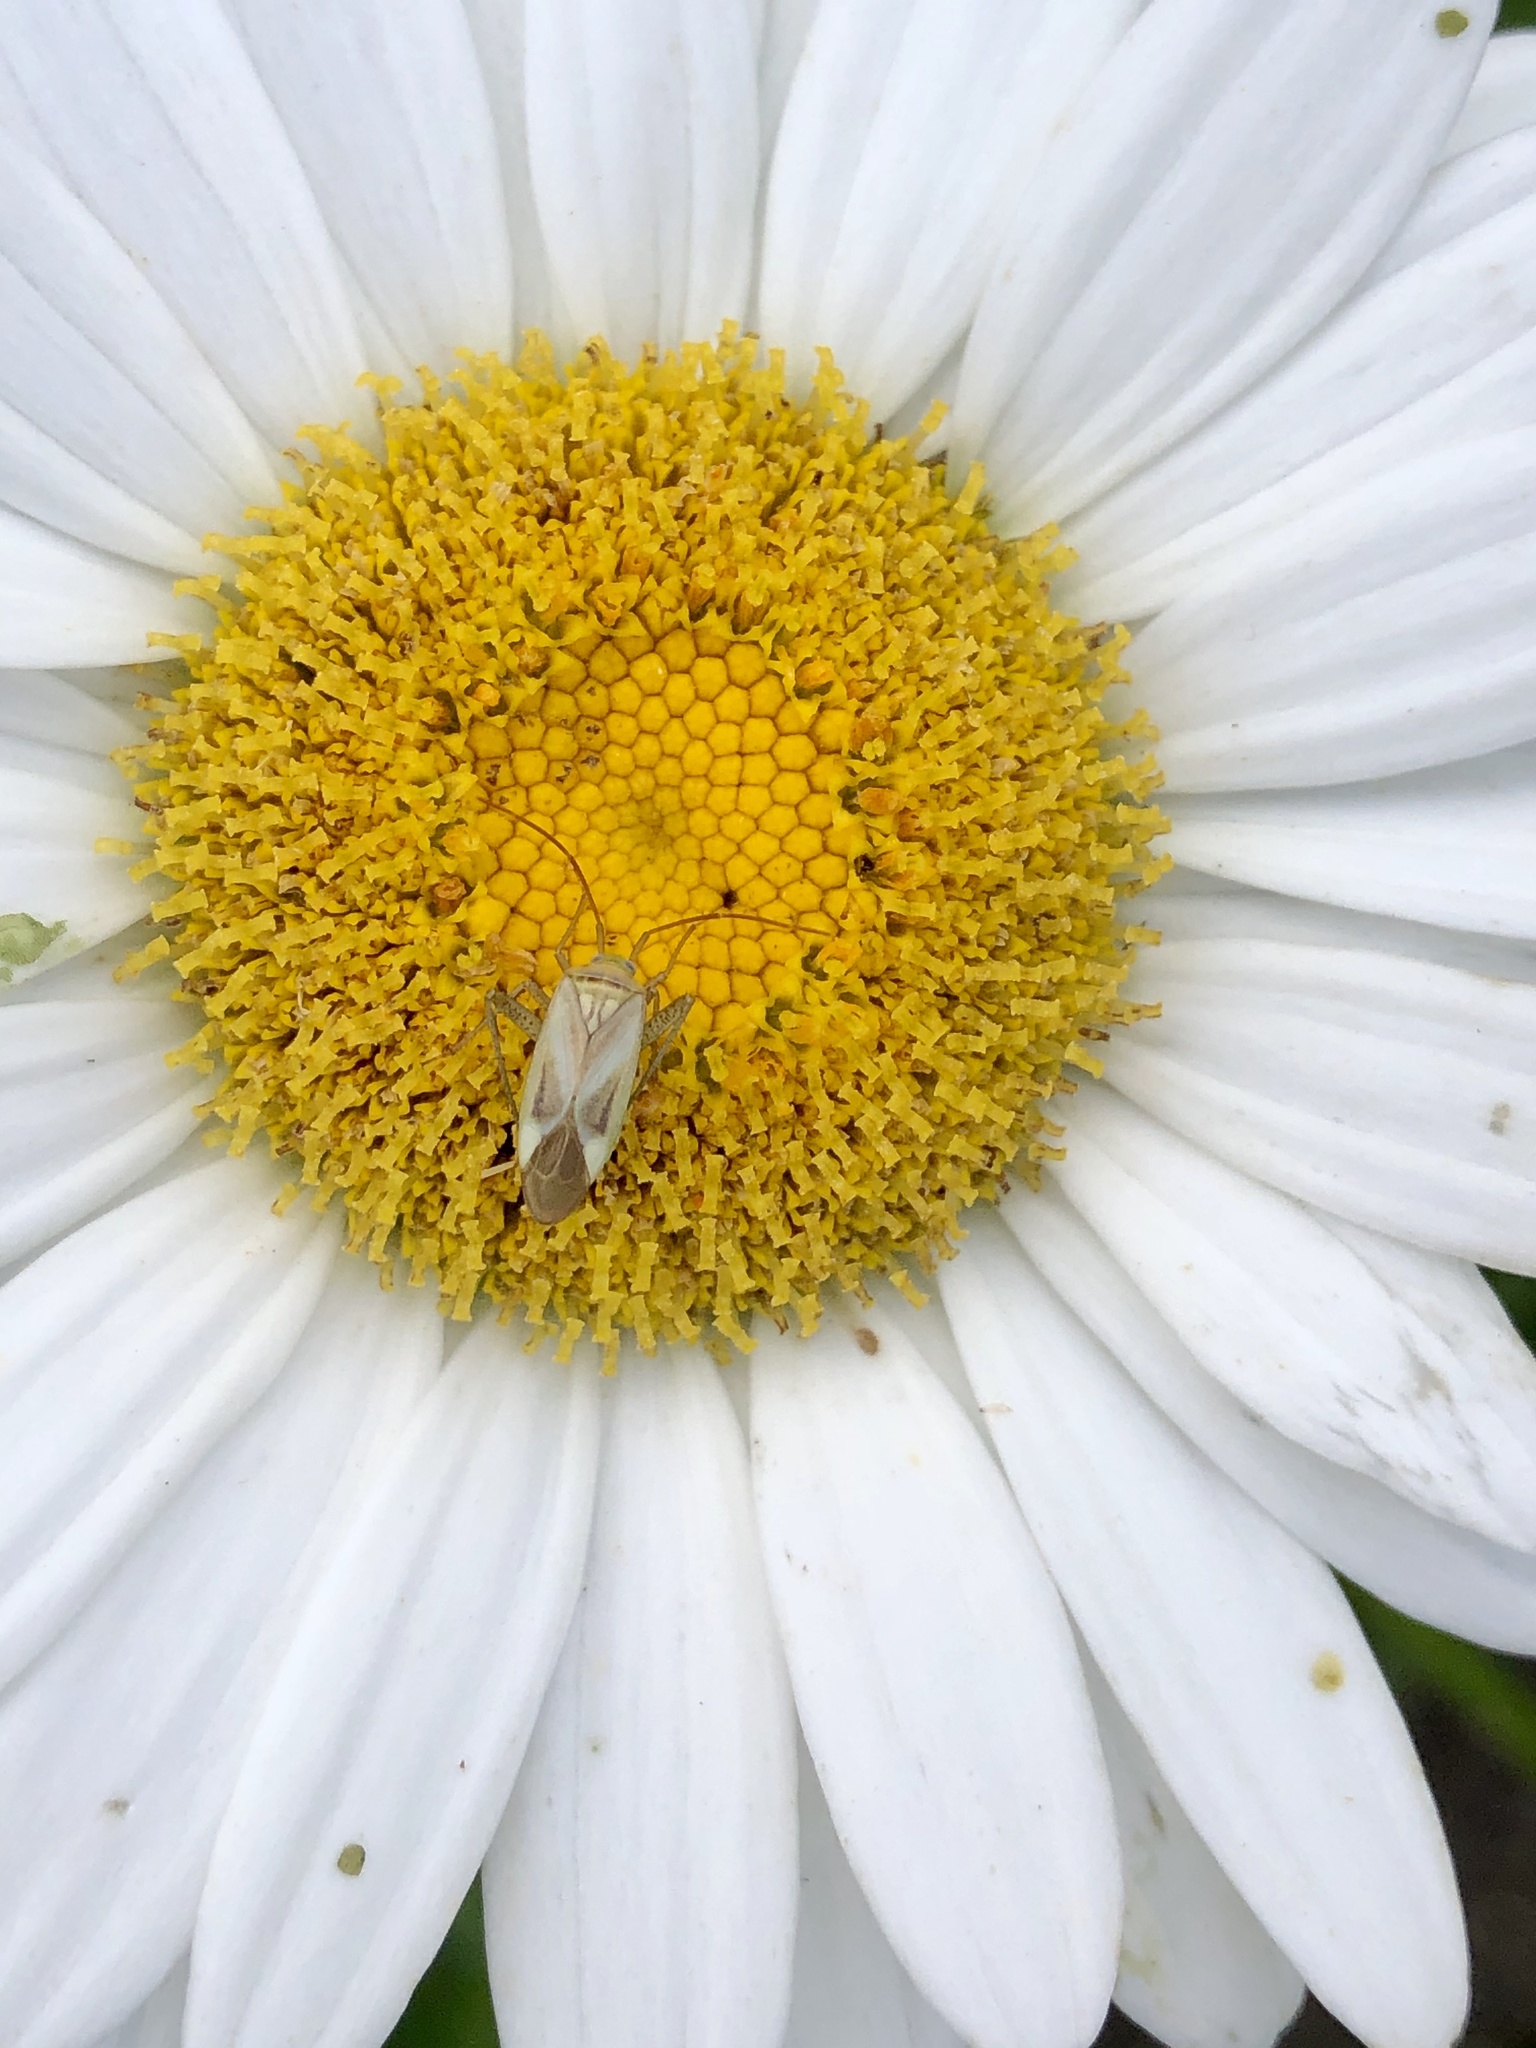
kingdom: Animalia
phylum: Arthropoda
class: Insecta
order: Hemiptera
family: Miridae
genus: Adelphocoris
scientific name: Adelphocoris lineolatus
